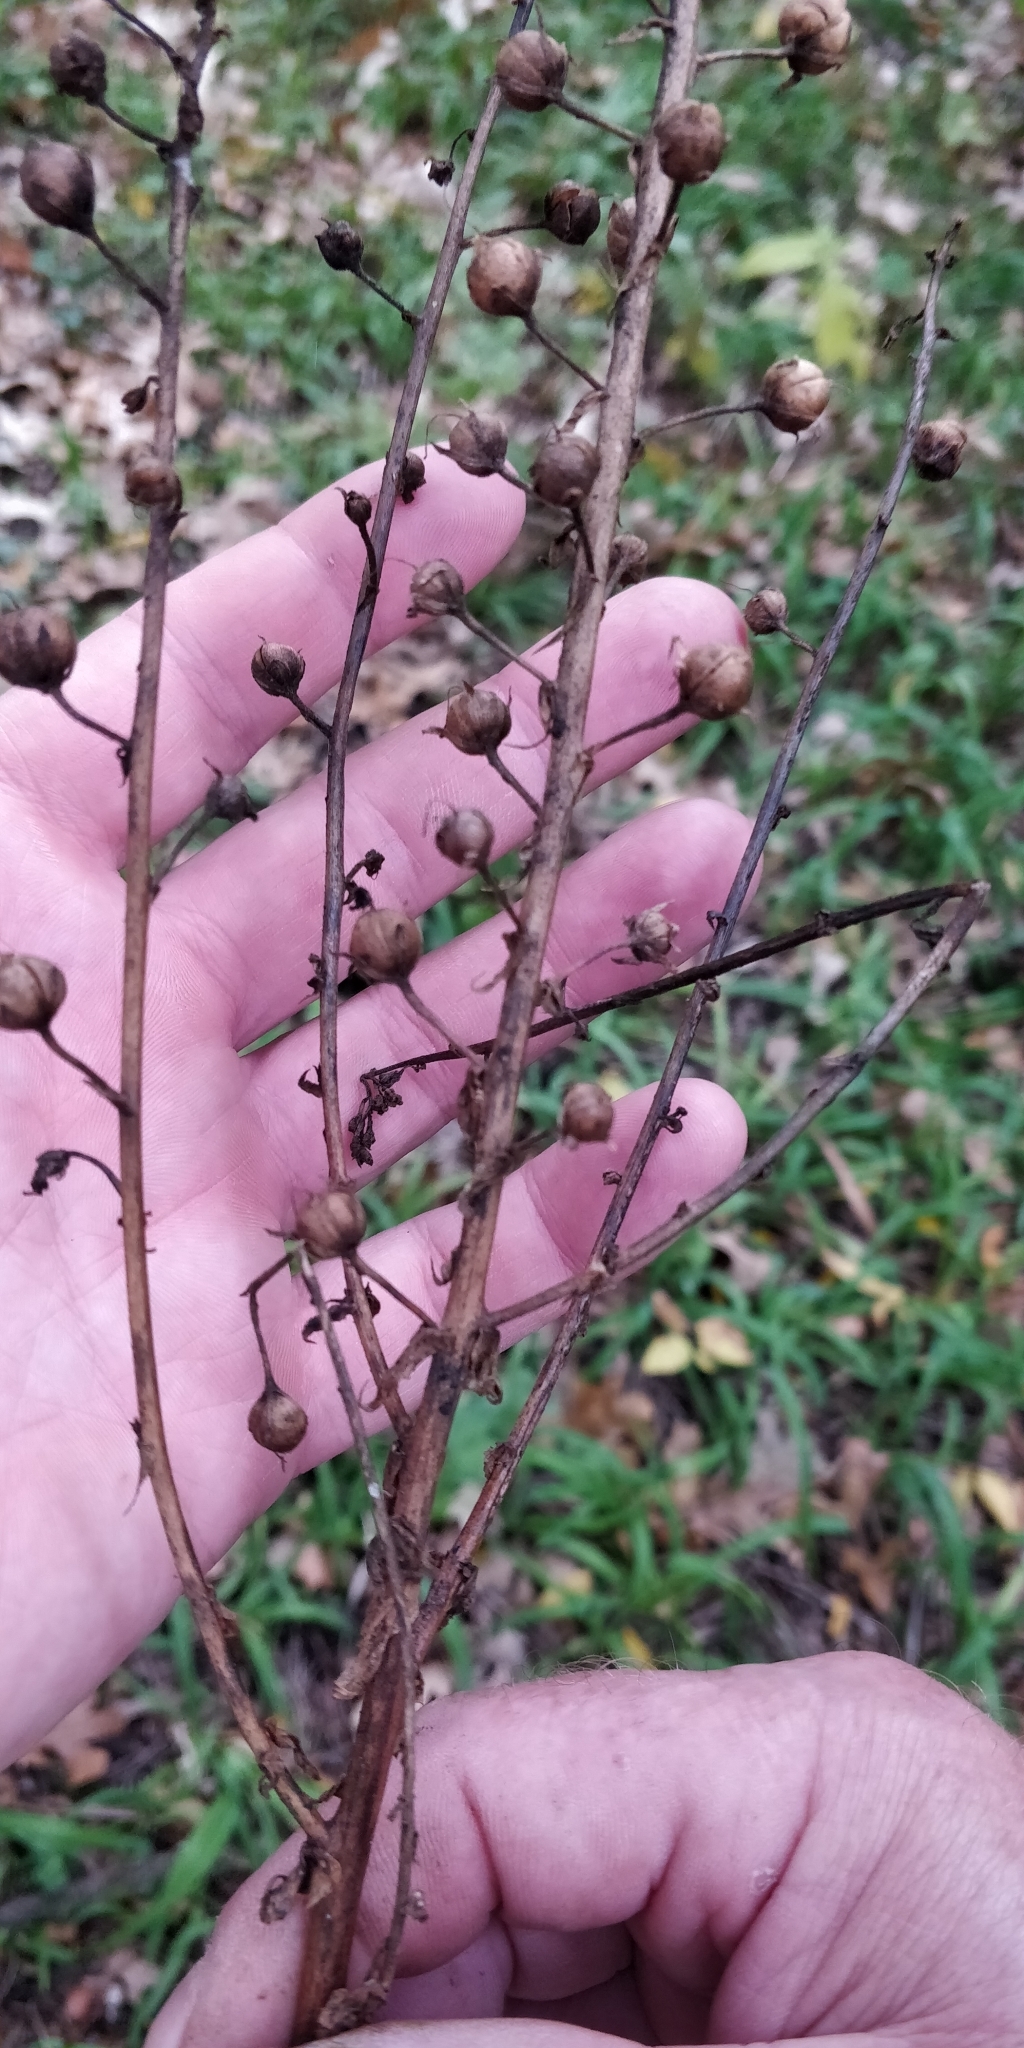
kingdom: Plantae
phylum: Tracheophyta
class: Magnoliopsida
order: Lamiales
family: Scrophulariaceae
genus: Verbascum
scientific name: Verbascum blattaria
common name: Moth mullein
